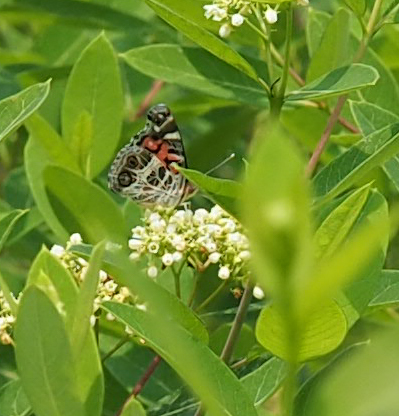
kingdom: Animalia
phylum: Arthropoda
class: Insecta
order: Lepidoptera
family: Nymphalidae
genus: Vanessa
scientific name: Vanessa virginiensis
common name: American lady
